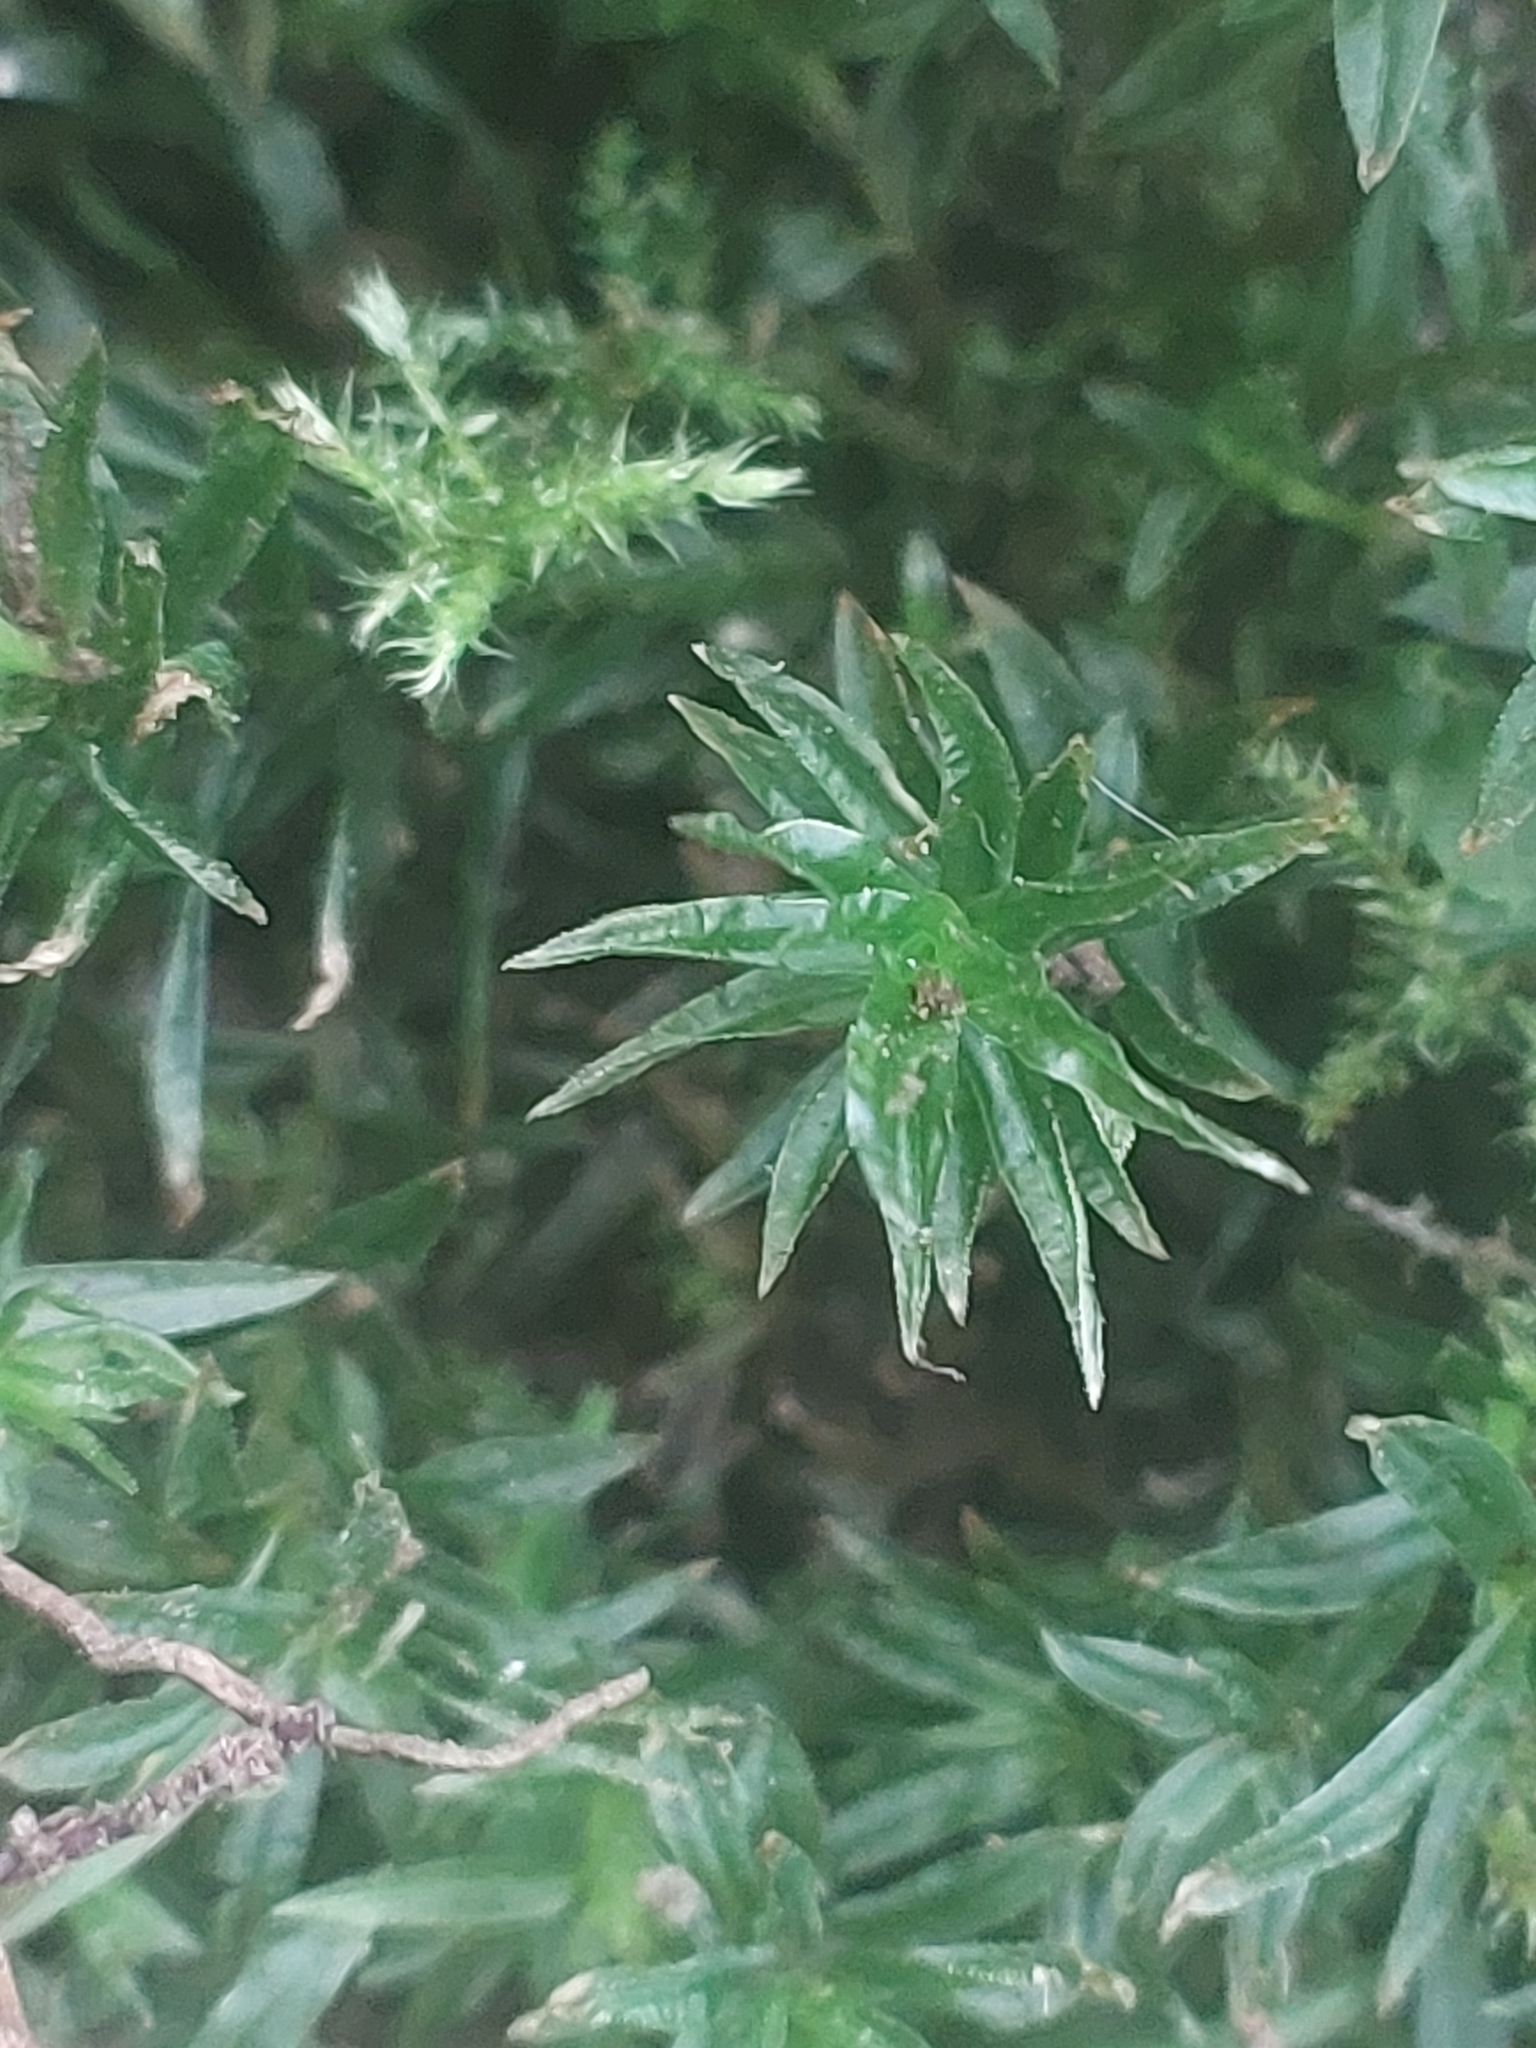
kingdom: Plantae
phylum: Bryophyta
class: Polytrichopsida
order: Polytrichales
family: Polytrichaceae
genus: Atrichum
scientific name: Atrichum undulatum
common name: Common smoothcap
